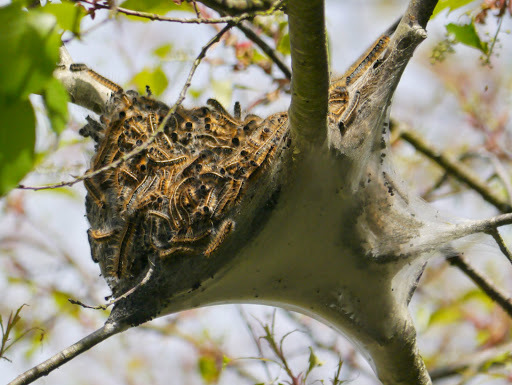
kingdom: Animalia
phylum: Arthropoda
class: Insecta
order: Lepidoptera
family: Lasiocampidae
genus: Malacosoma
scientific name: Malacosoma americana
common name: Eastern tent caterpillar moth
